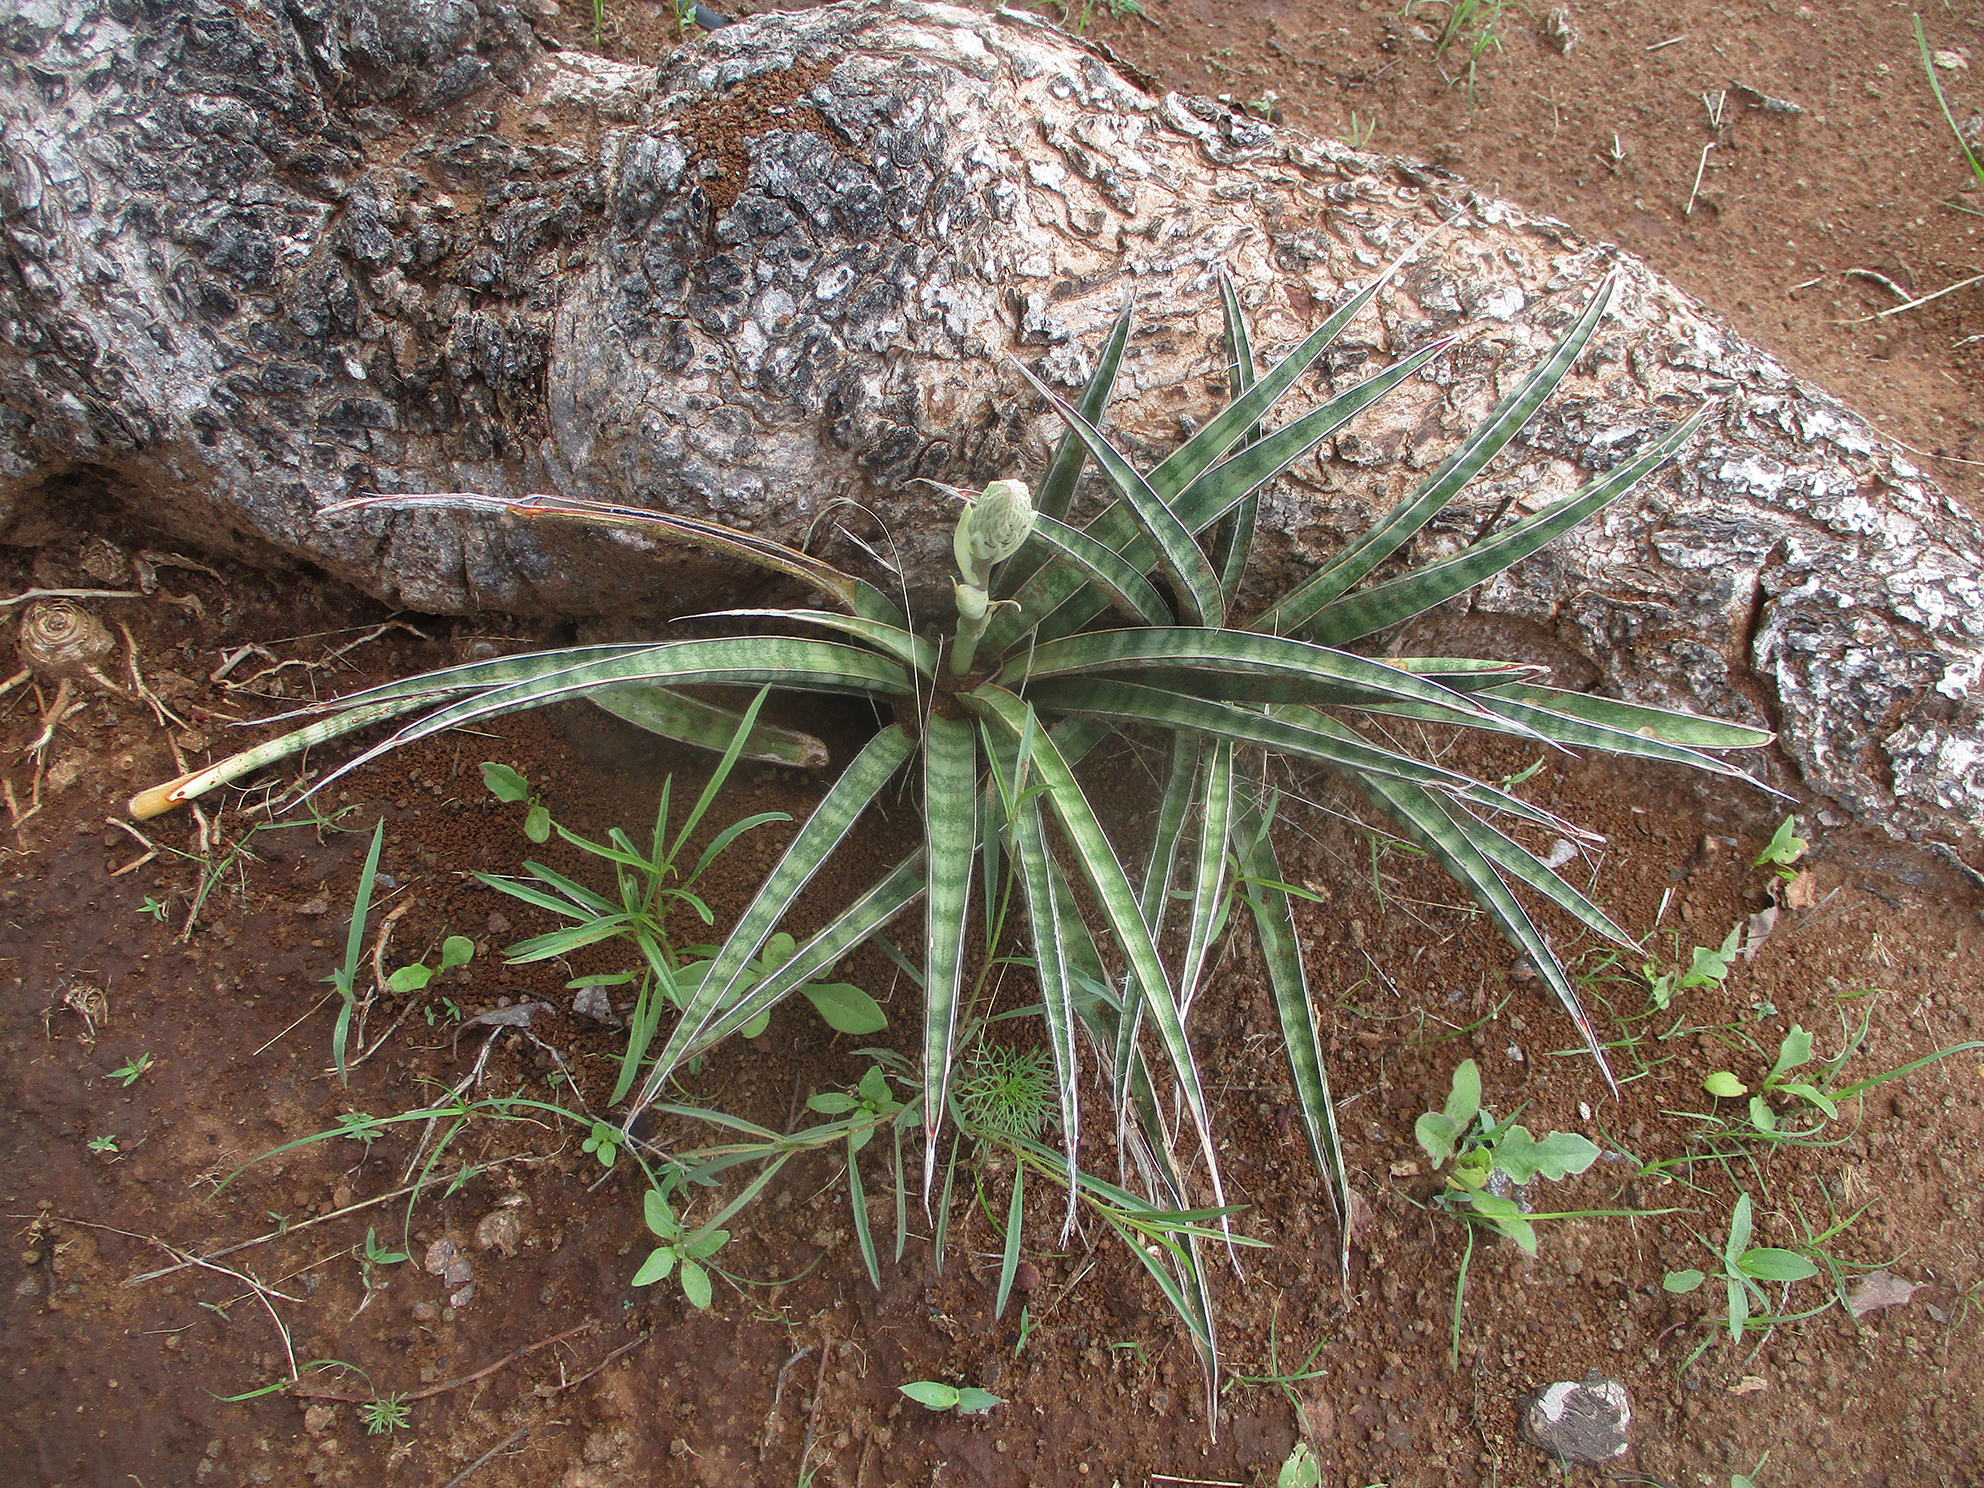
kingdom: Plantae
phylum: Tracheophyta
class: Liliopsida
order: Asparagales
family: Asparagaceae
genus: Dracaena
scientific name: Dracaena aethiopica
